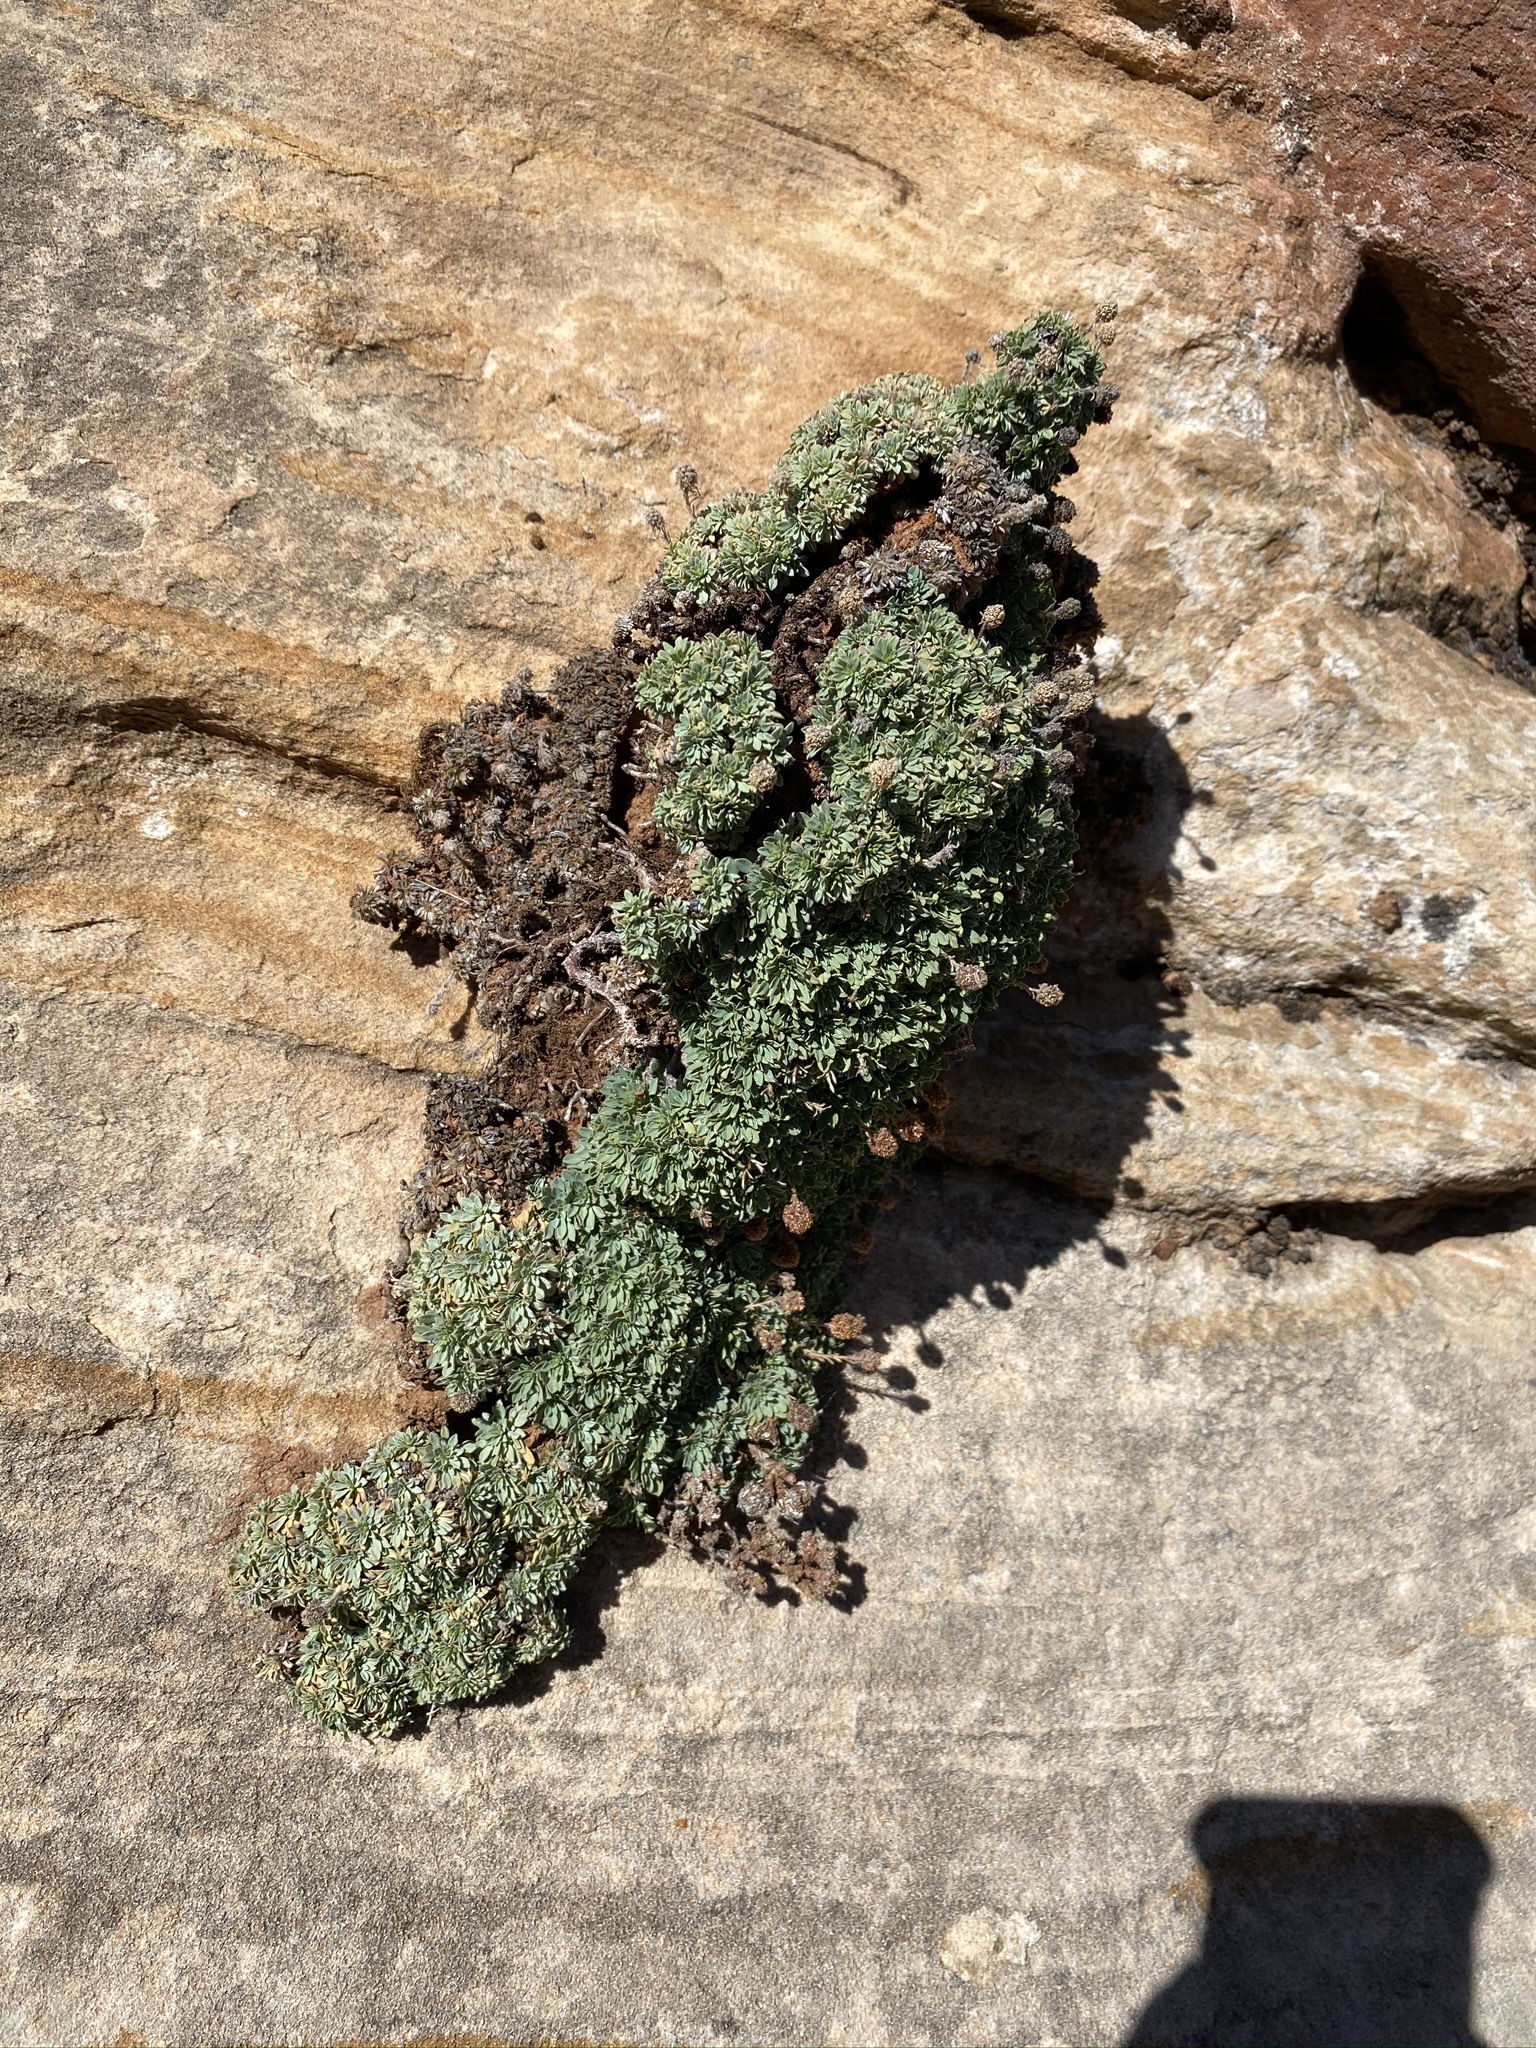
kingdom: Plantae
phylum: Tracheophyta
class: Magnoliopsida
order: Rosales
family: Rosaceae
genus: Petrophytum
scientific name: Petrophytum caespitosum
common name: Mat rockspirea
